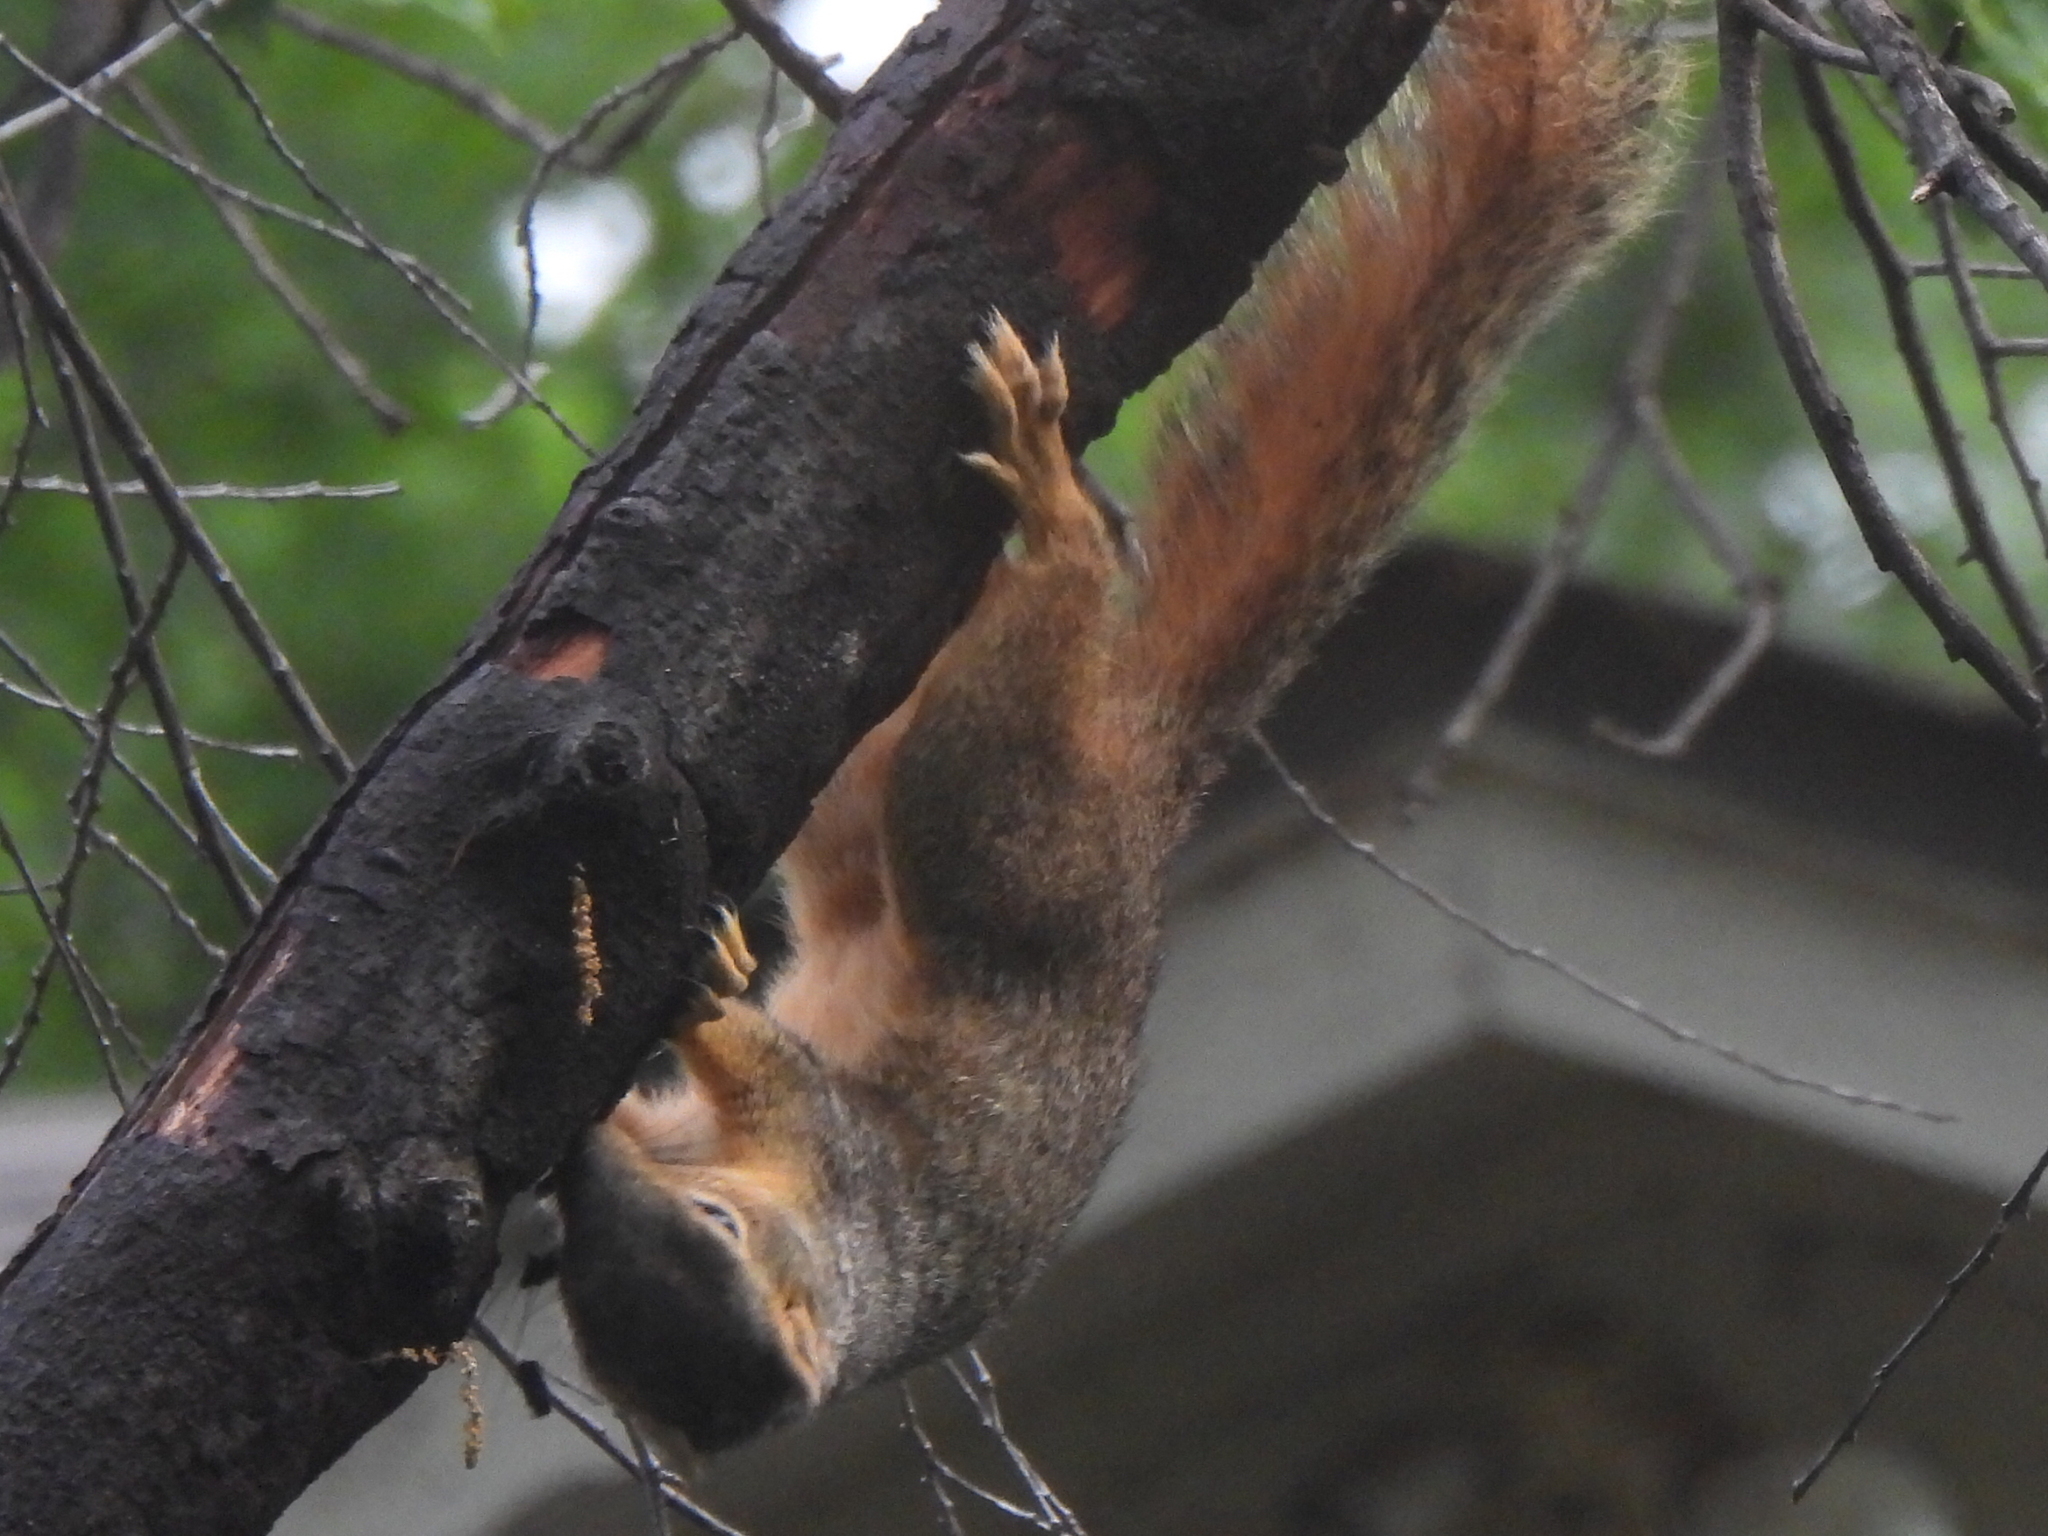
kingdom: Animalia
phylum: Chordata
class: Mammalia
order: Rodentia
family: Sciuridae
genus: Sciurus
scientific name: Sciurus niger
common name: Fox squirrel
